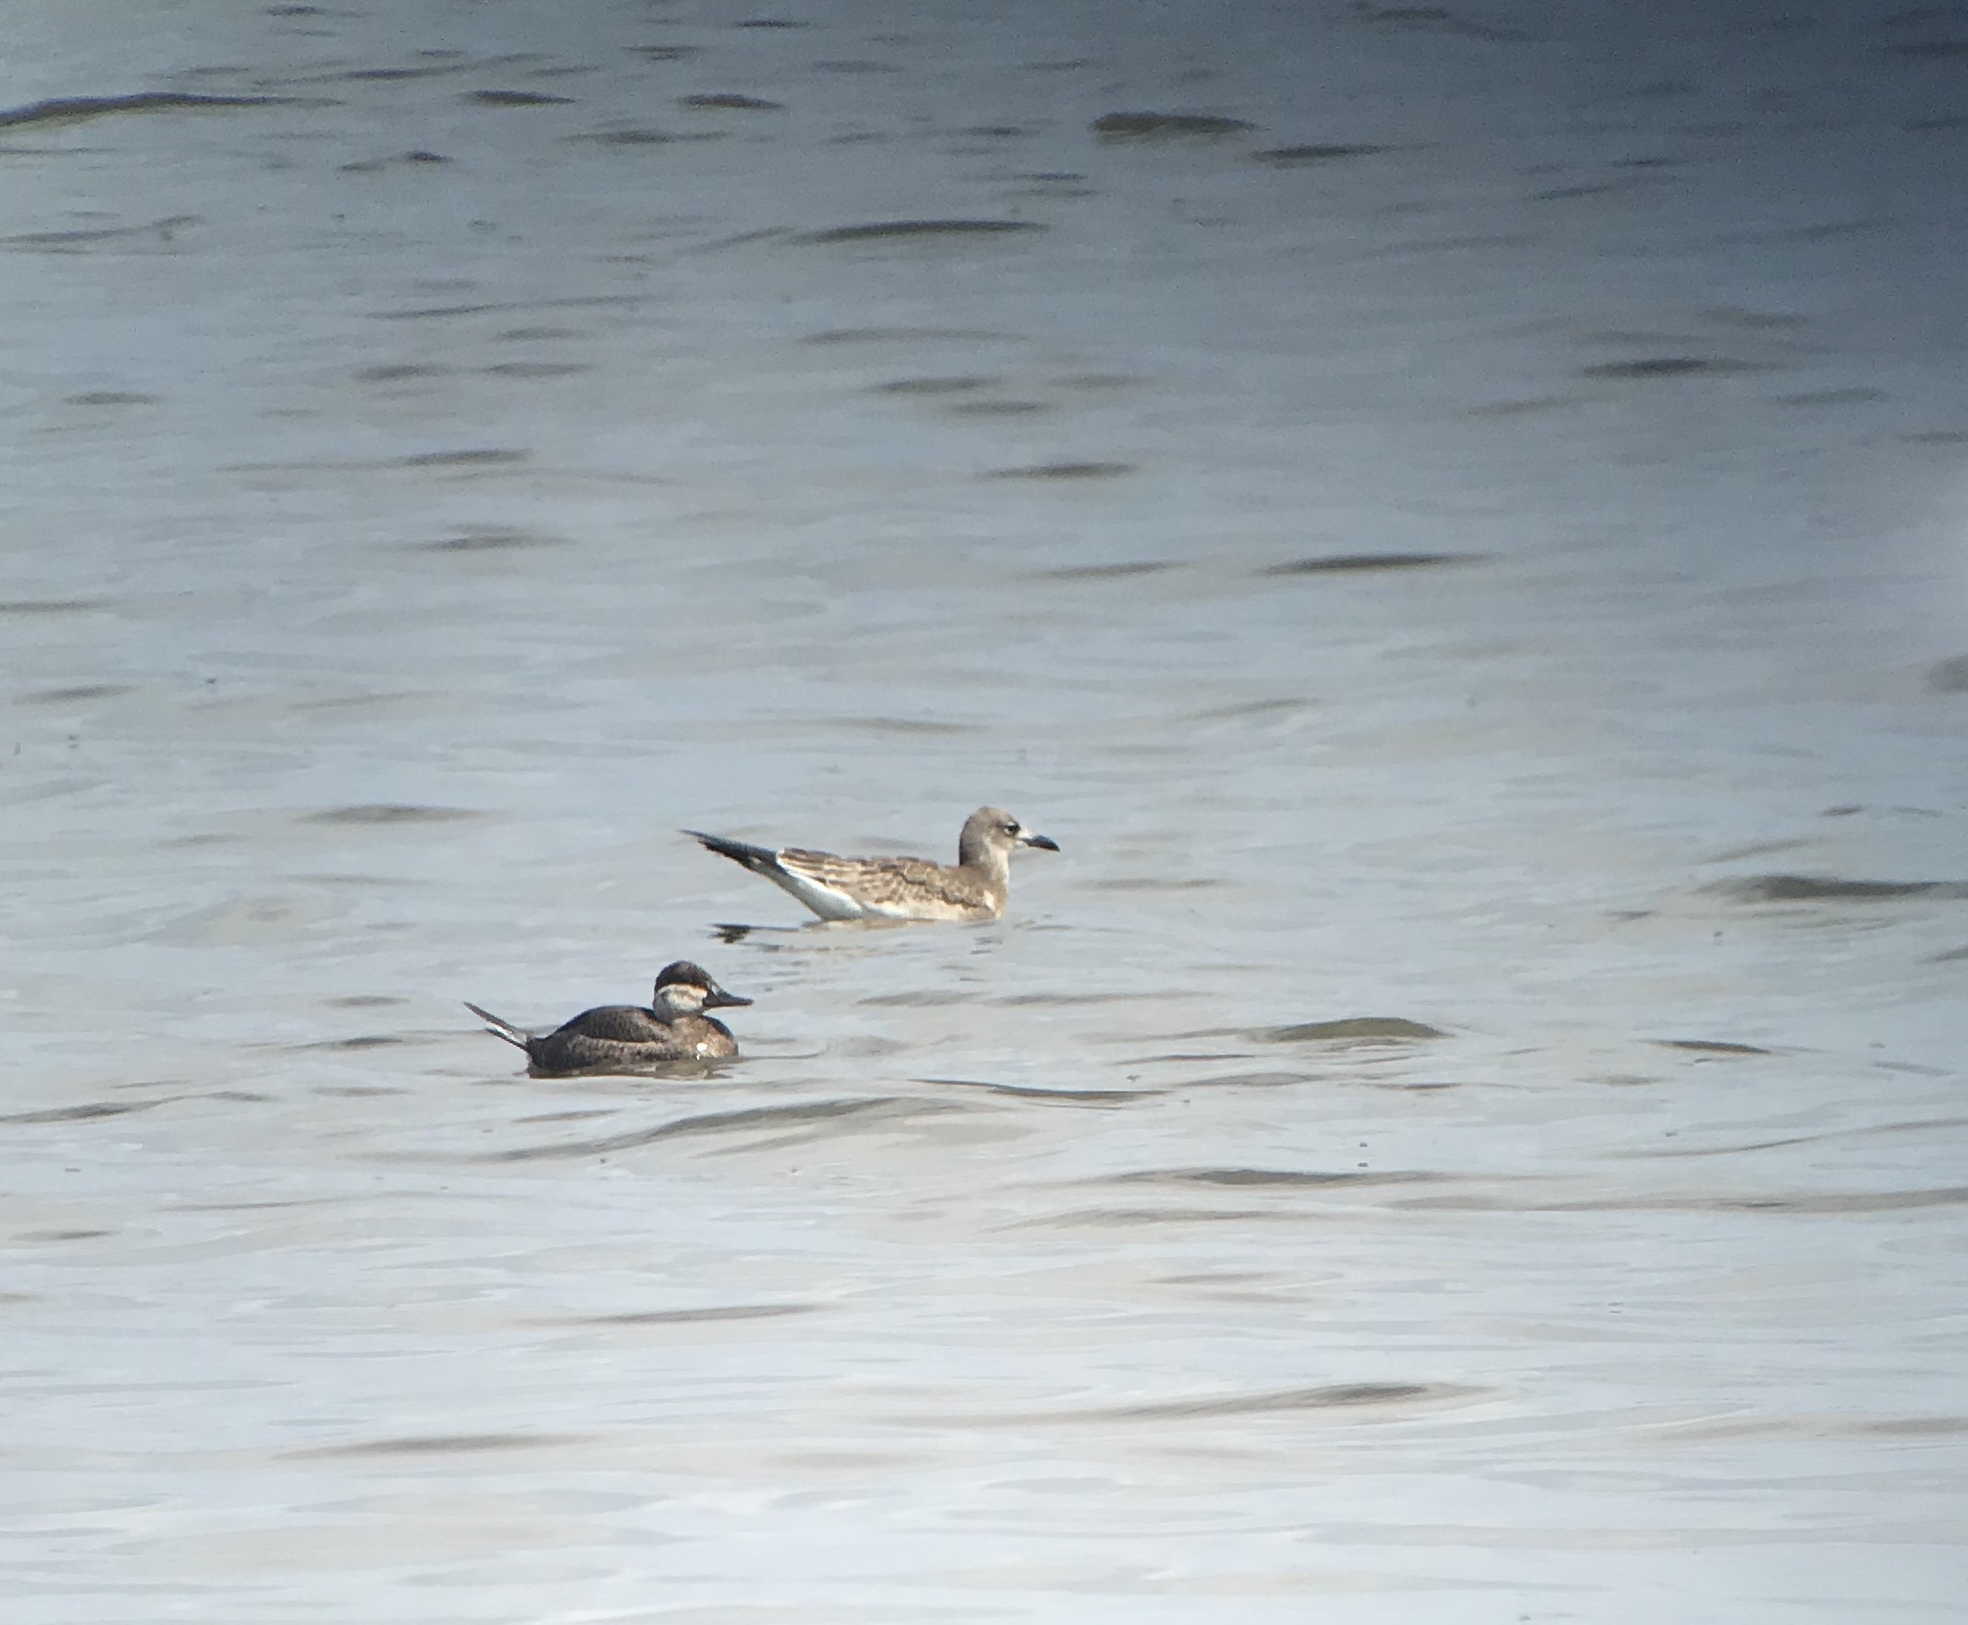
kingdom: Animalia
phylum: Chordata
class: Aves
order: Anseriformes
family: Anatidae
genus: Oxyura
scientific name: Oxyura jamaicensis
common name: Ruddy duck
